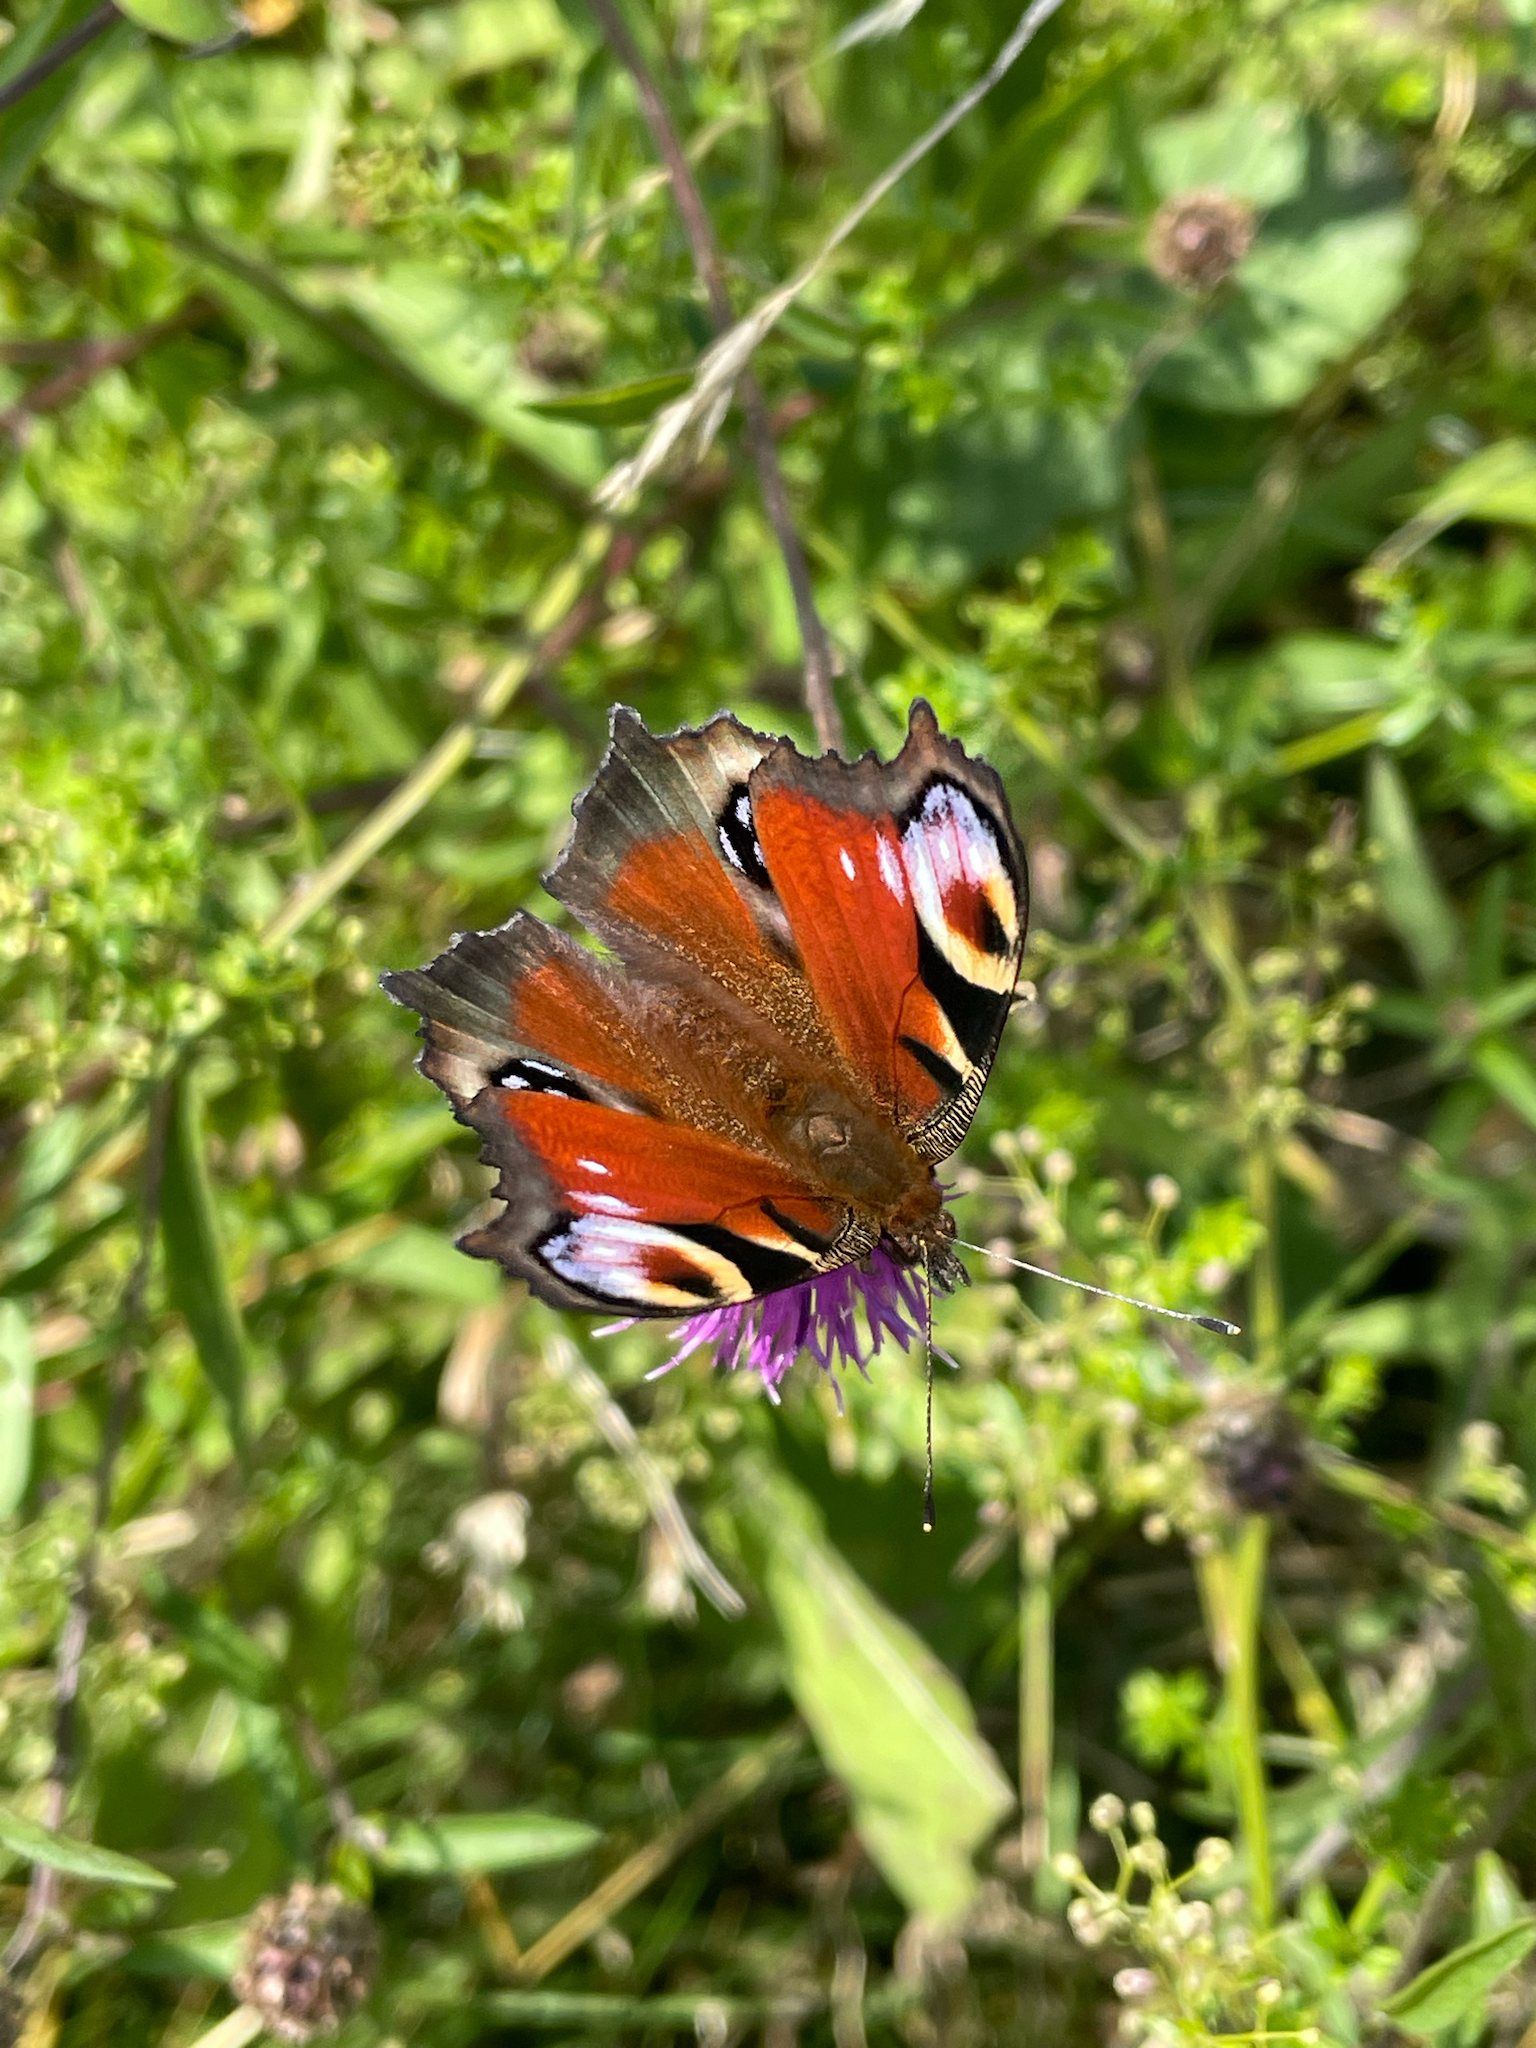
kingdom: Animalia
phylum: Arthropoda
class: Insecta
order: Lepidoptera
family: Nymphalidae
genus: Aglais
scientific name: Aglais io
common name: Peacock
